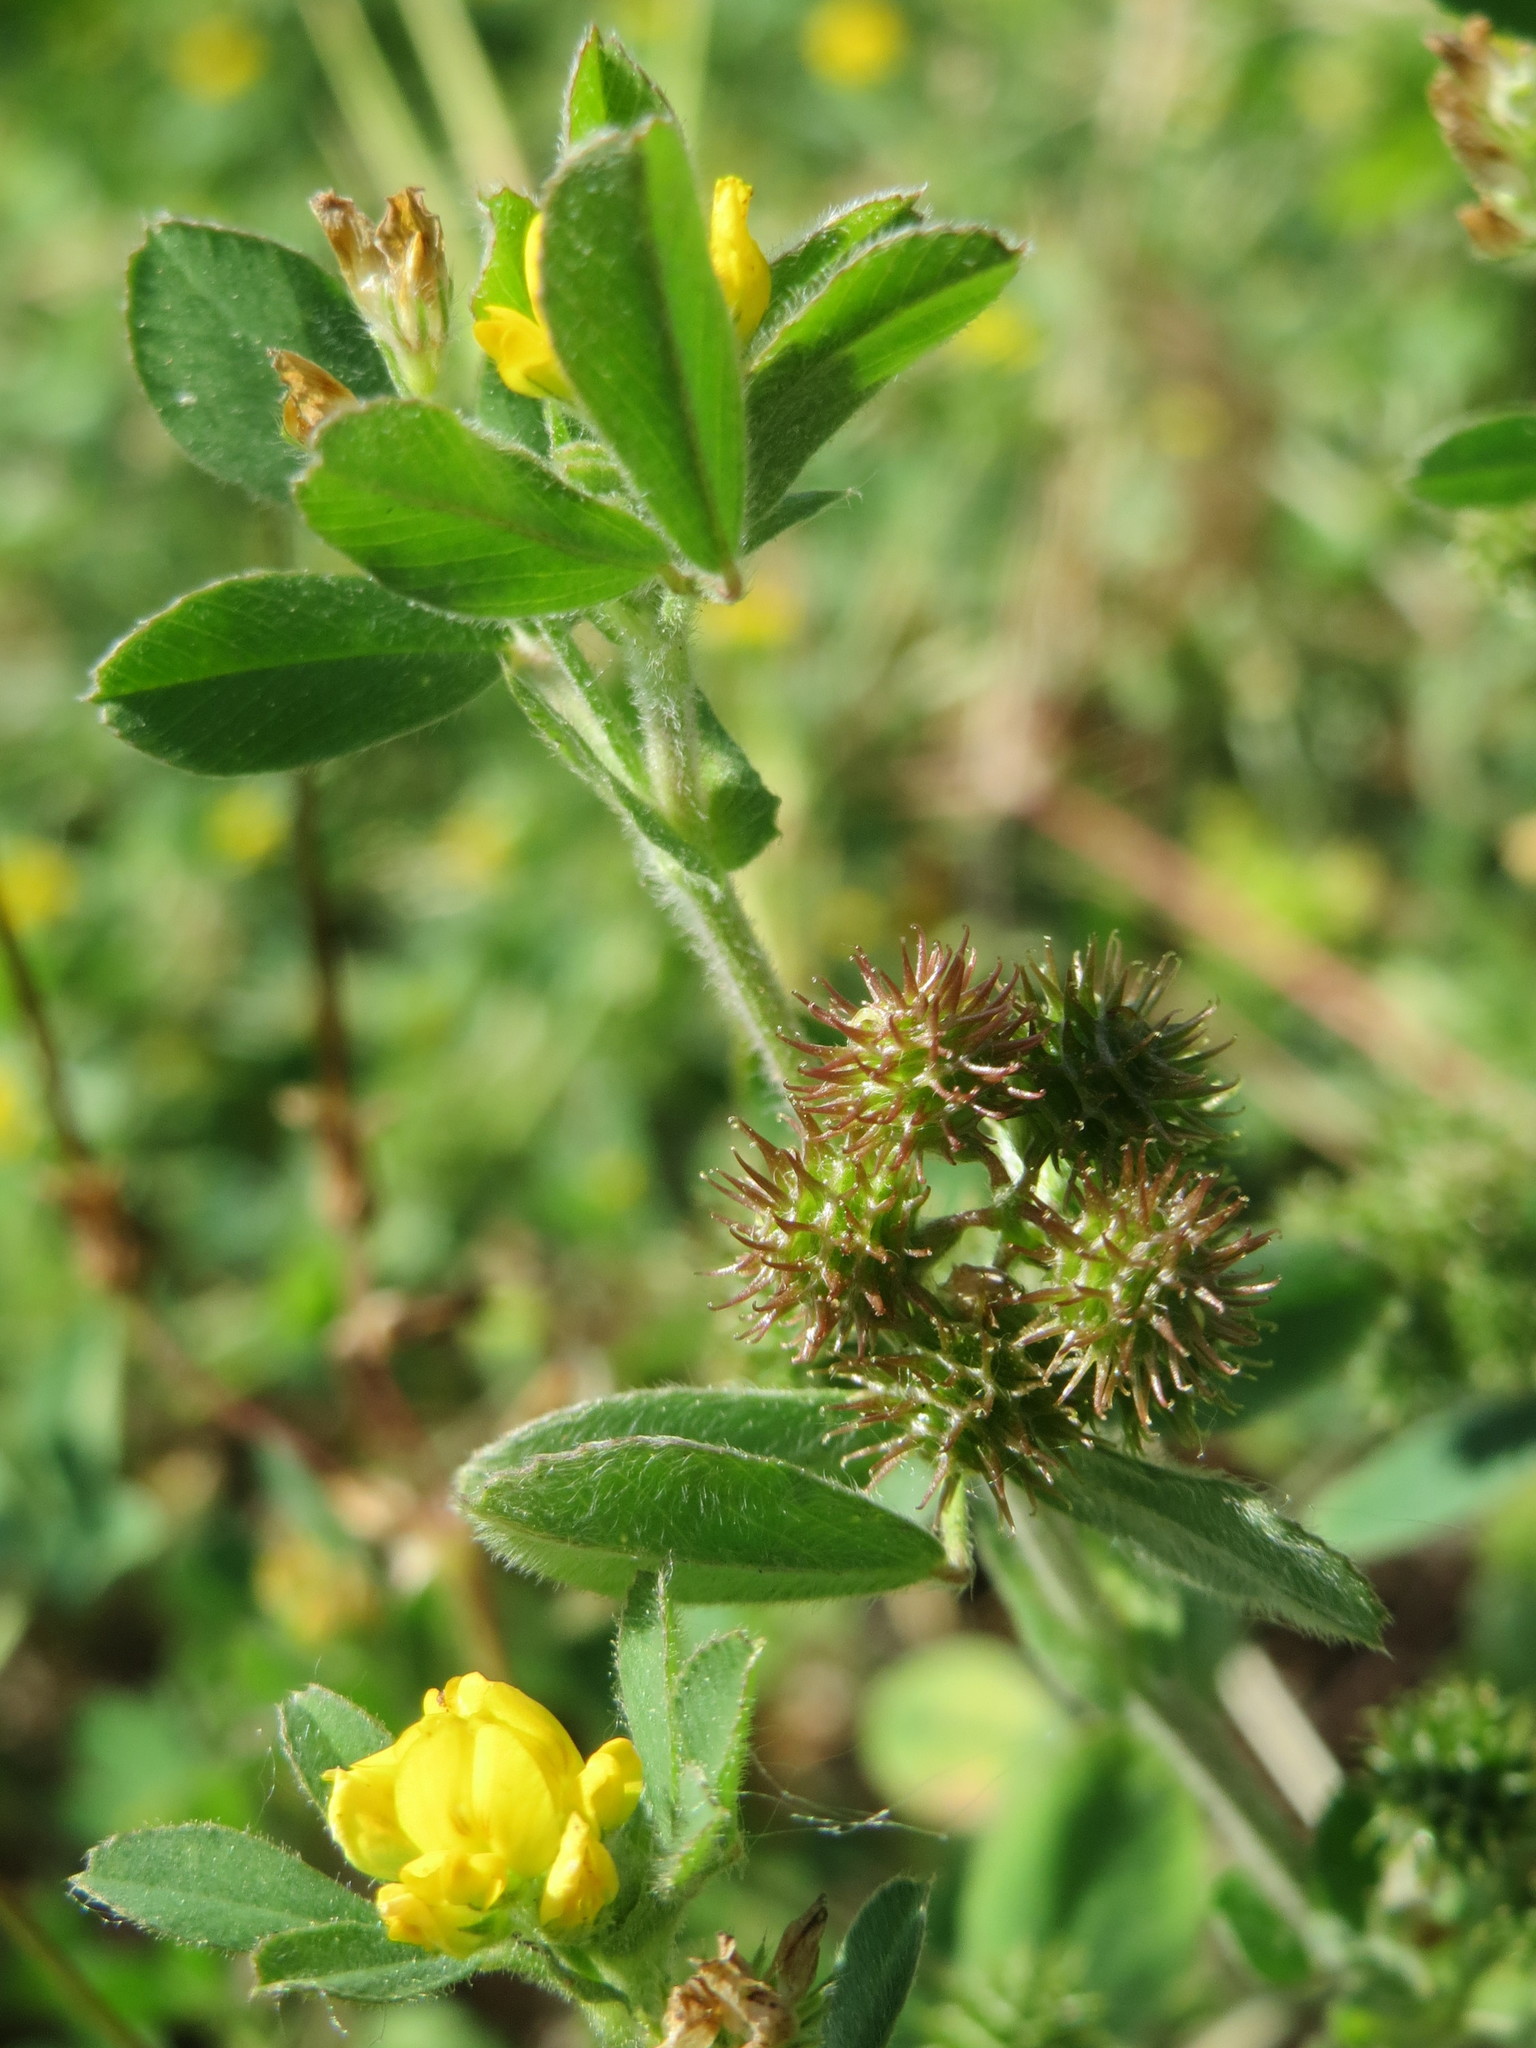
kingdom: Plantae
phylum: Tracheophyta
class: Magnoliopsida
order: Fabales
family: Fabaceae
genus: Medicago
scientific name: Medicago minima
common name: Little bur-clover
